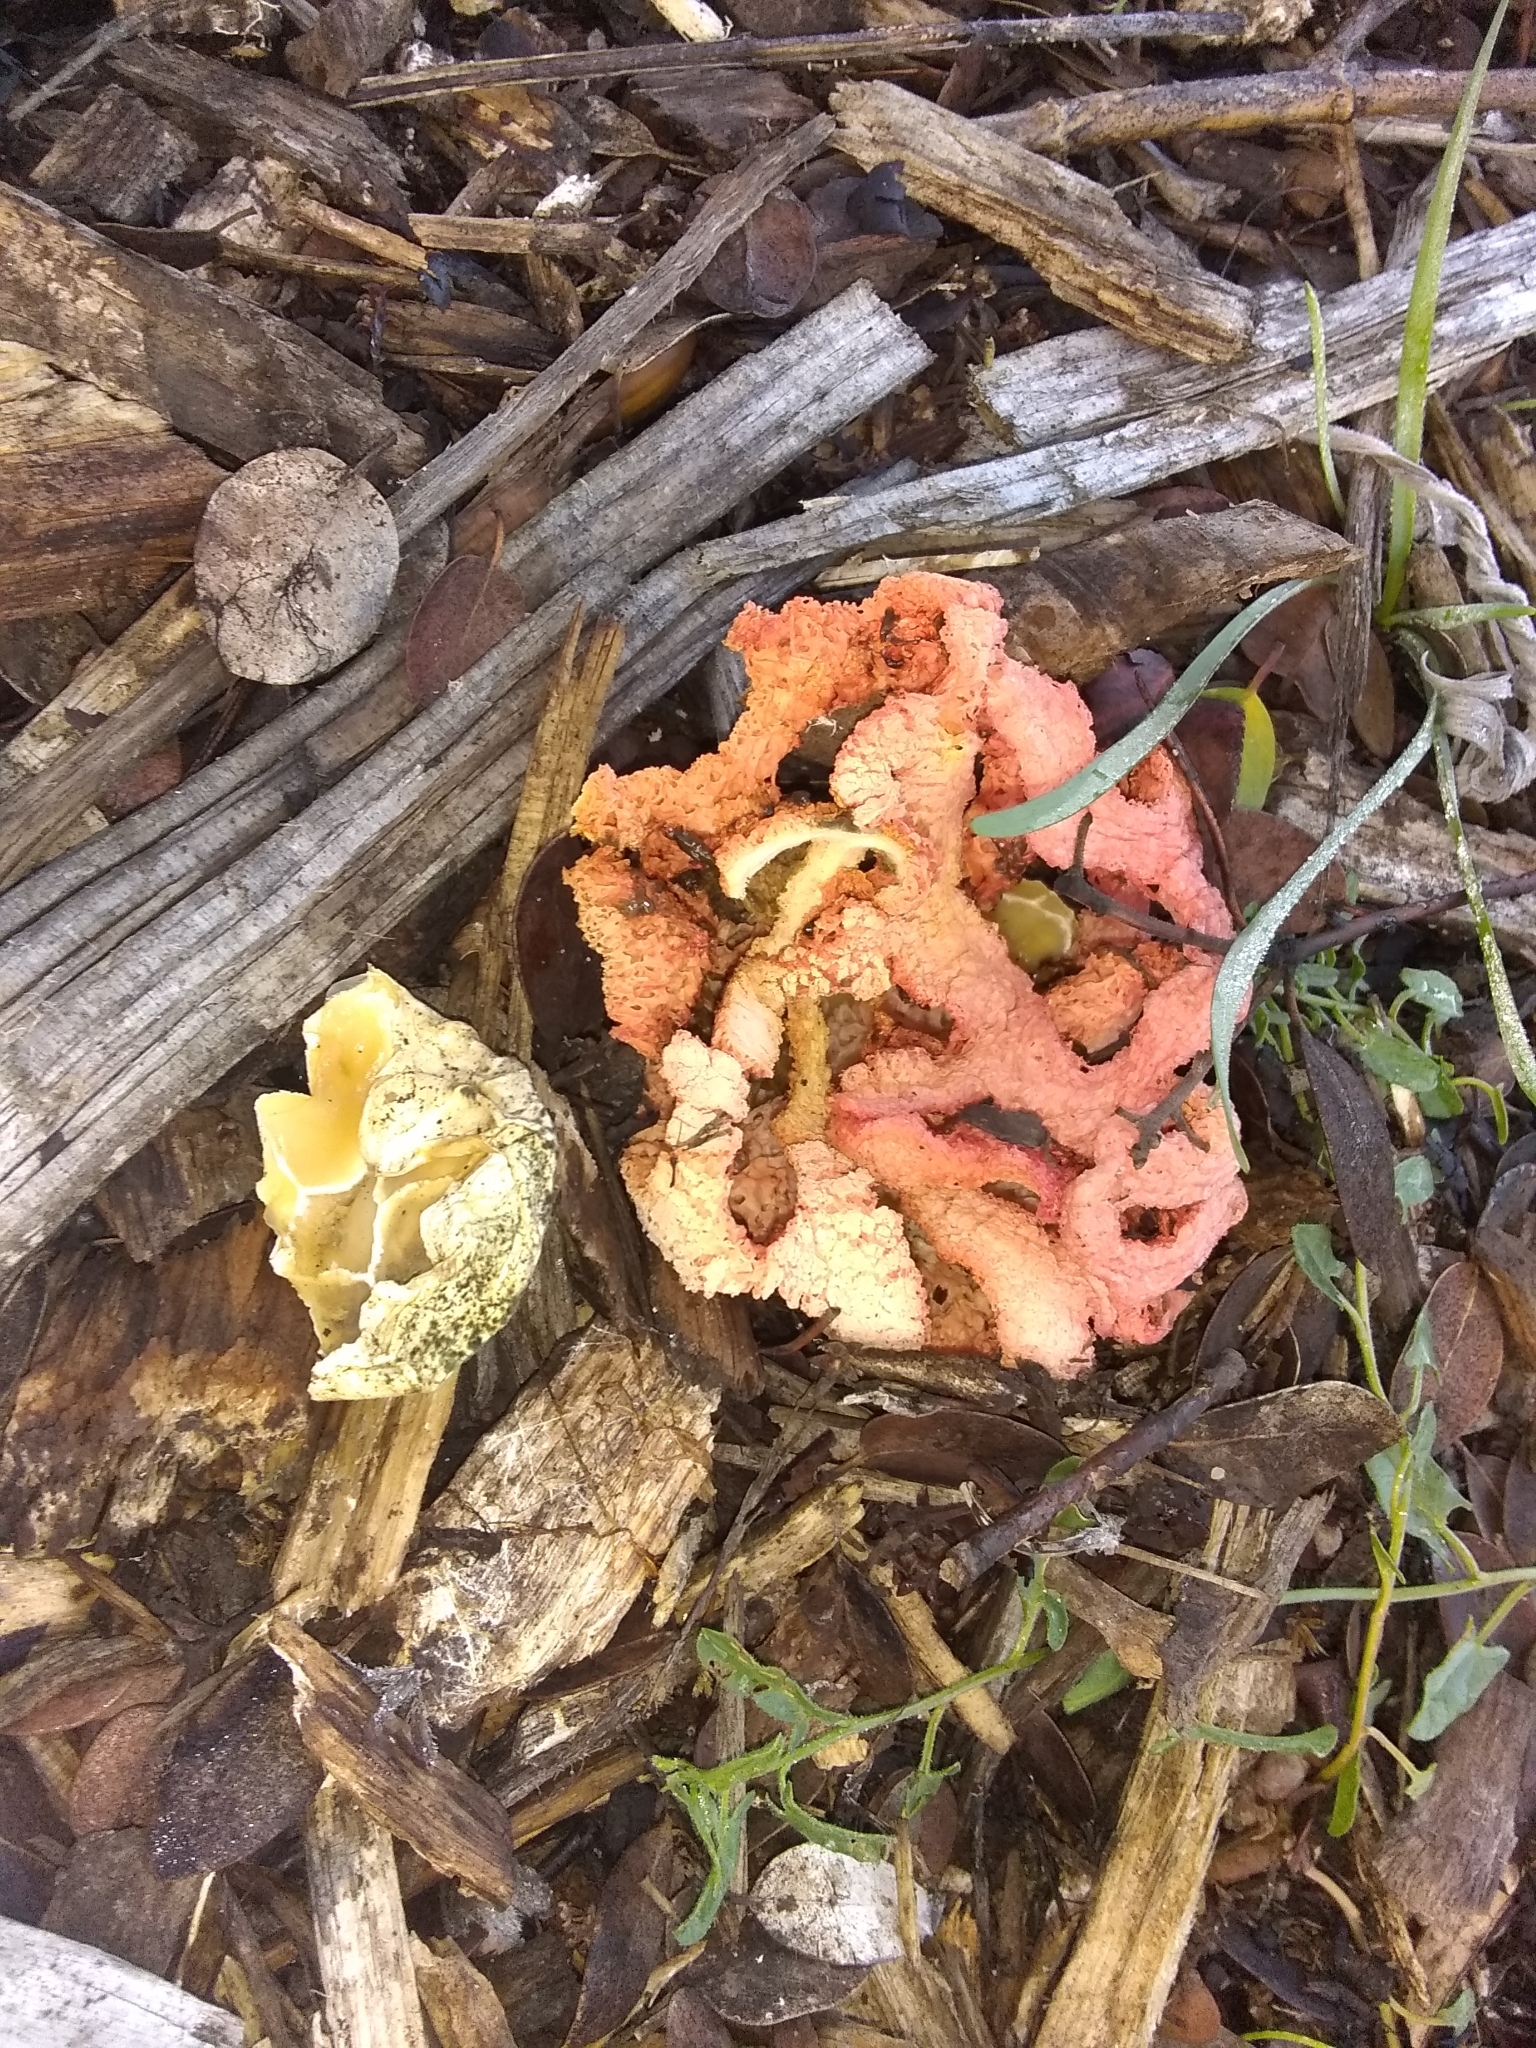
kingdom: Fungi
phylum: Basidiomycota
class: Agaricomycetes
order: Phallales
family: Phallaceae
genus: Clathrus
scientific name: Clathrus ruber
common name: Red cage
